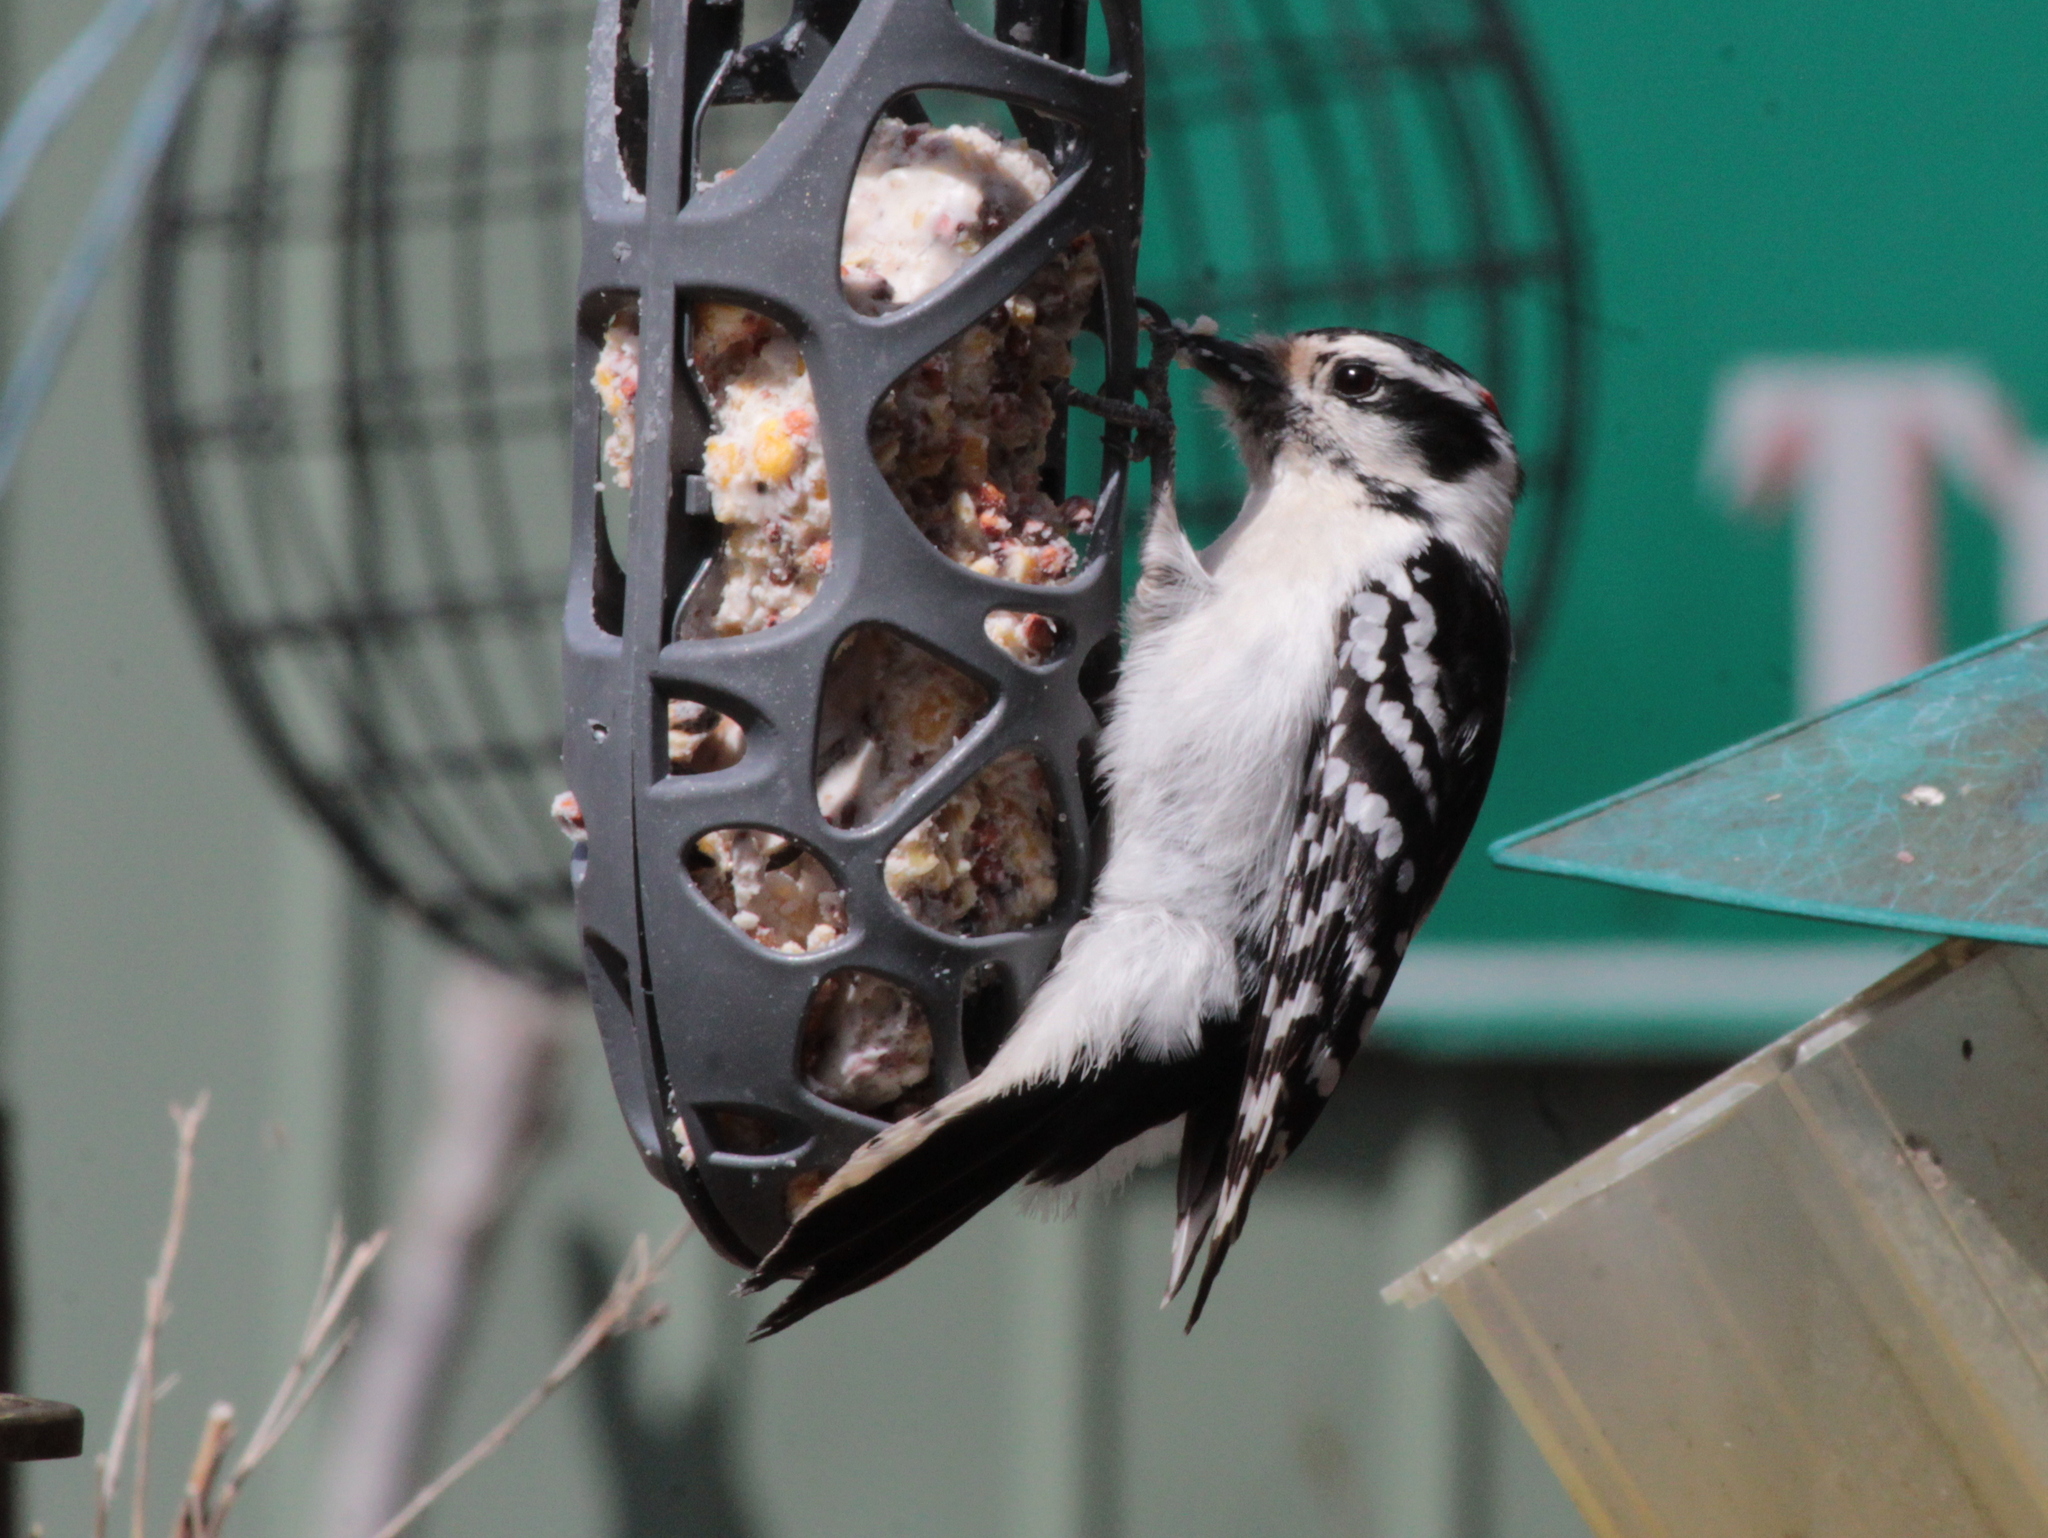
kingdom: Animalia
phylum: Chordata
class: Aves
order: Piciformes
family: Picidae
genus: Dryobates
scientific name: Dryobates pubescens
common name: Downy woodpecker
